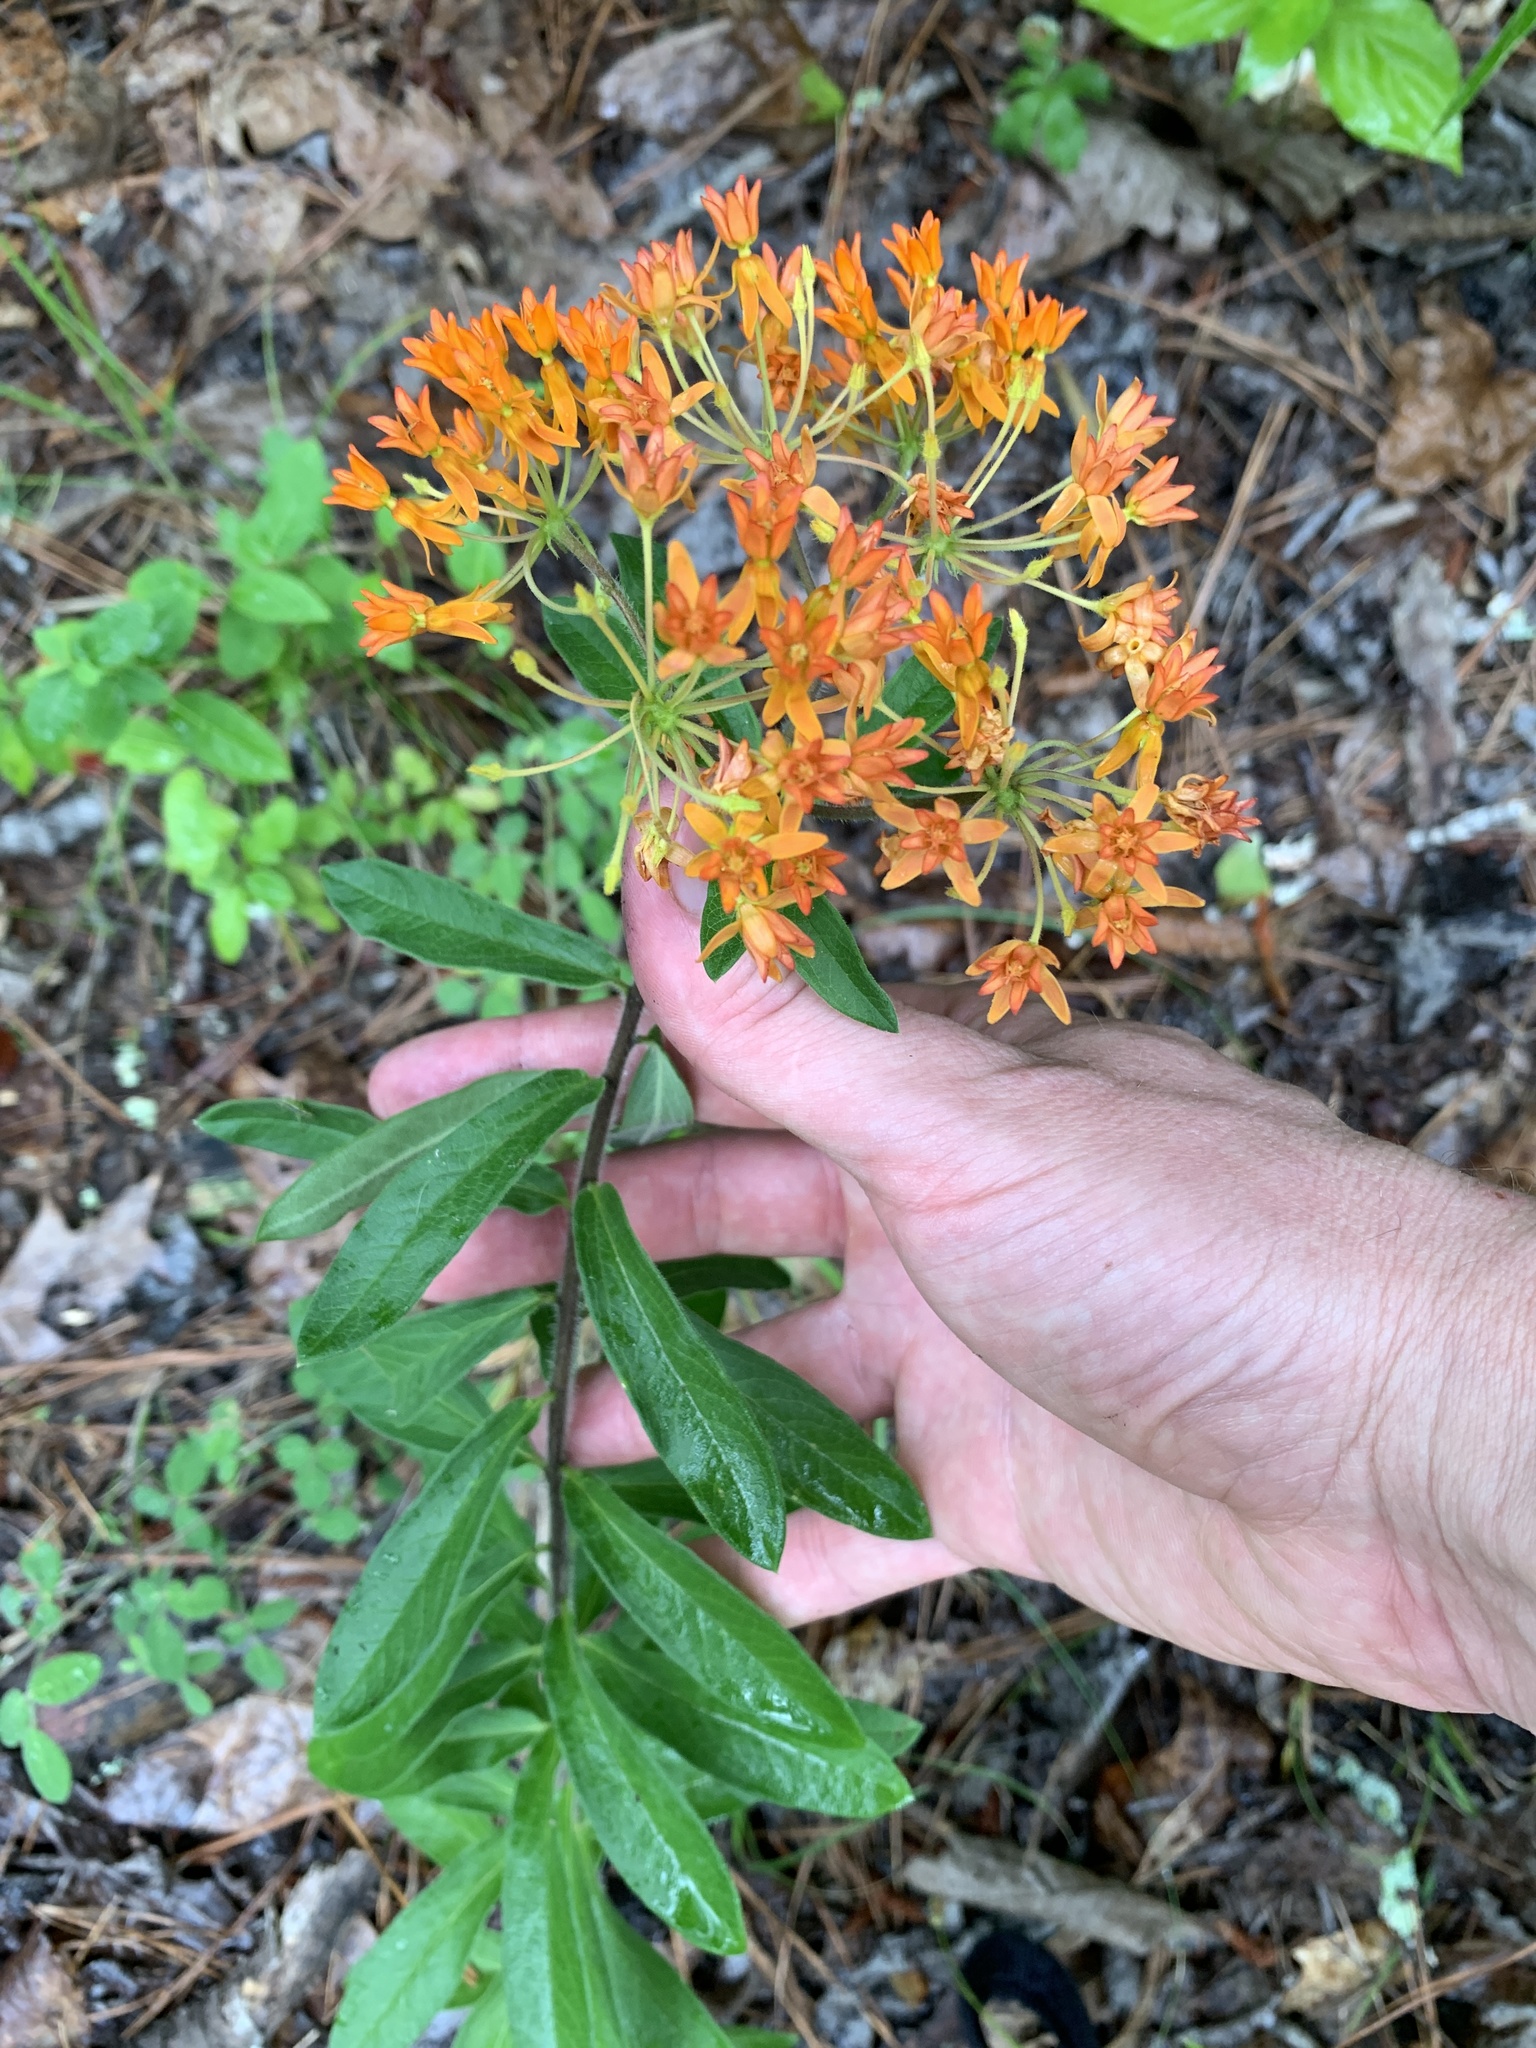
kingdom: Plantae
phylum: Tracheophyta
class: Magnoliopsida
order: Gentianales
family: Apocynaceae
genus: Asclepias
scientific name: Asclepias tuberosa
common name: Butterfly milkweed
